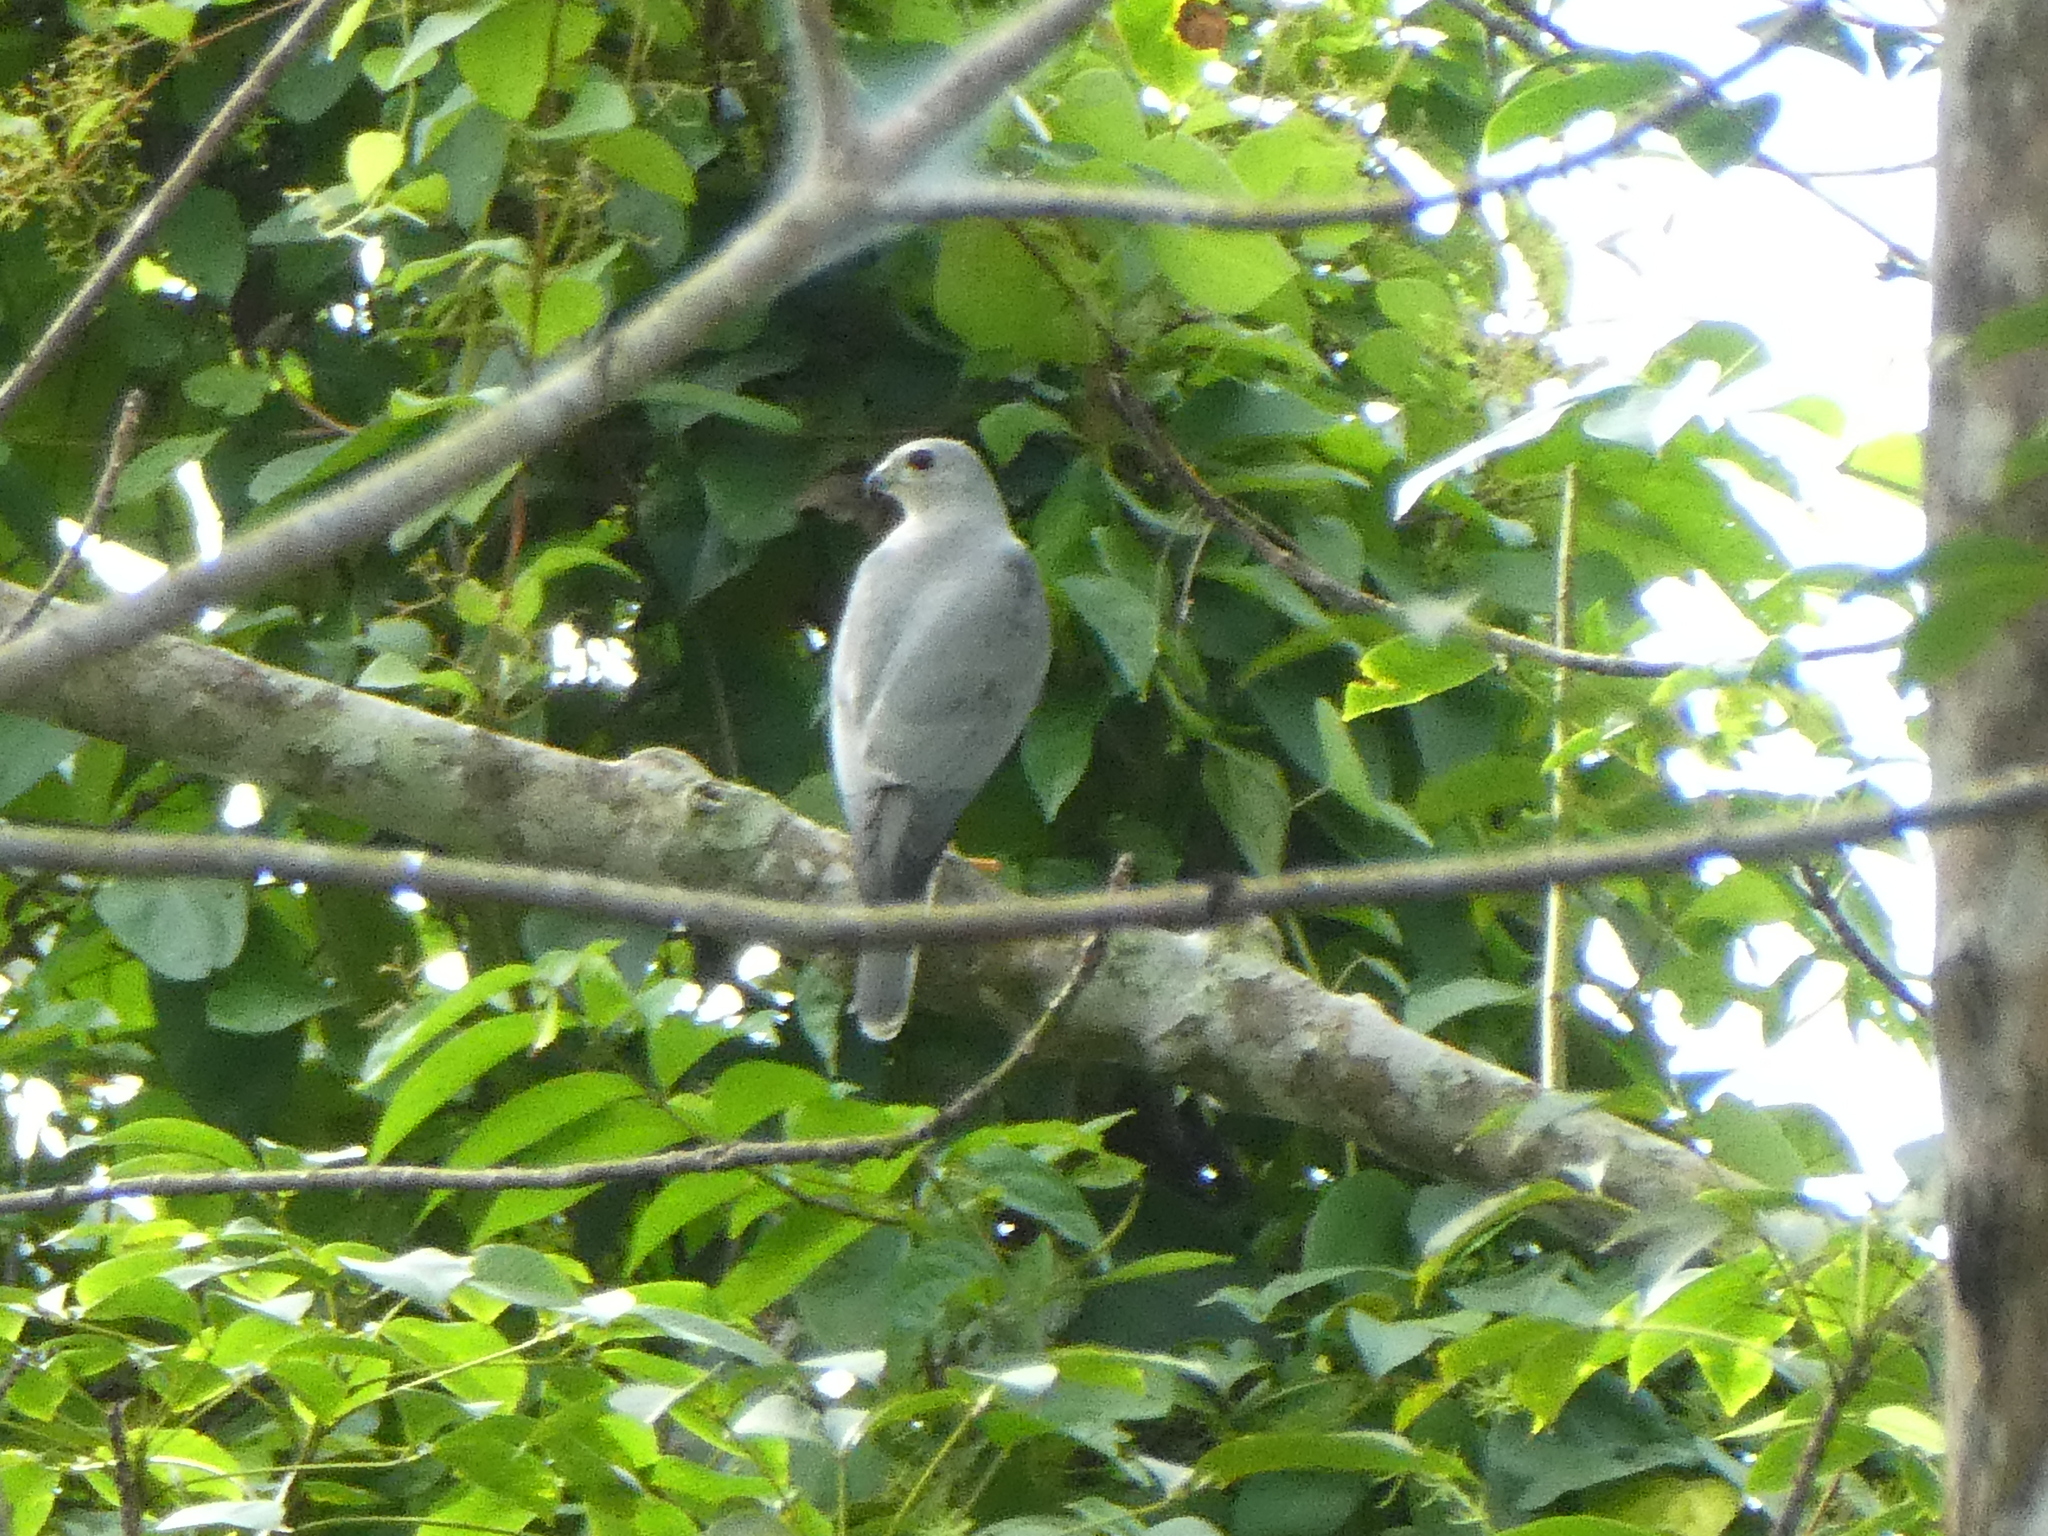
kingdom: Animalia
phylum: Chordata
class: Aves
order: Accipitriformes
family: Accipitridae
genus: Accipiter
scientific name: Accipiter badius
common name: Shikra
